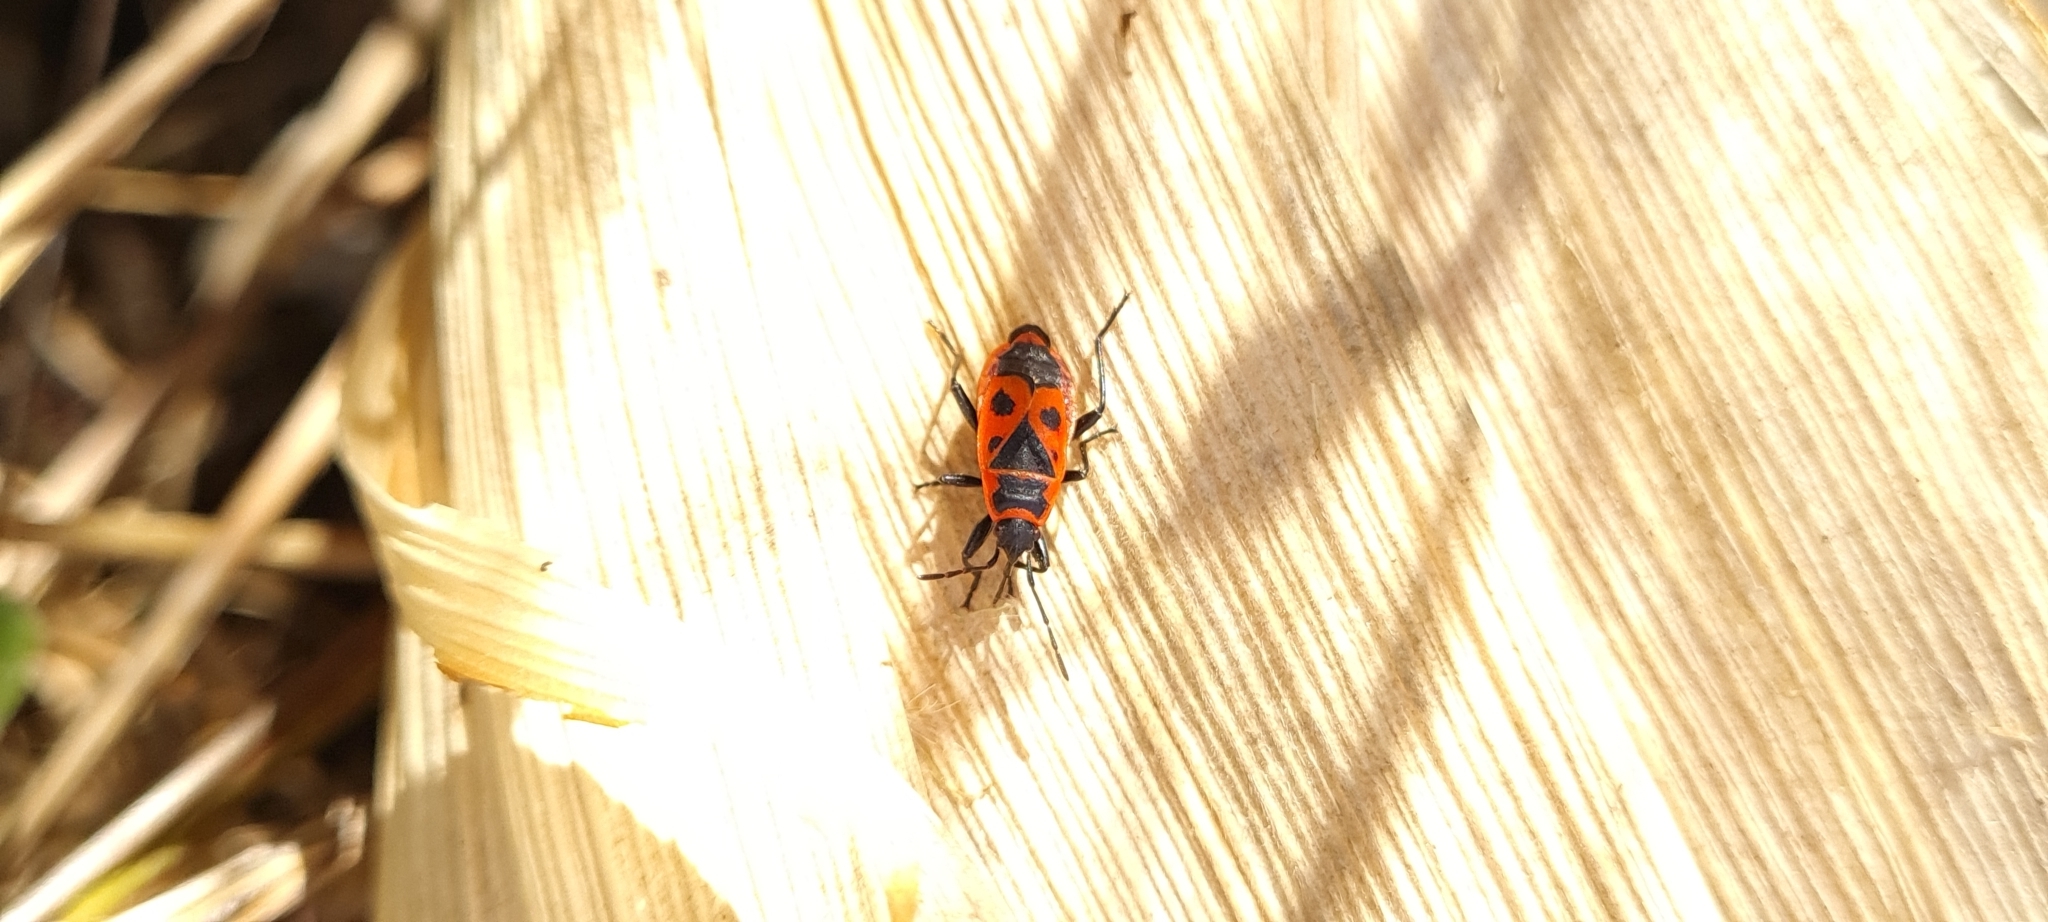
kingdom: Animalia
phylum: Arthropoda
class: Insecta
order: Hemiptera
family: Pyrrhocoridae
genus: Pyrrhocoris
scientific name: Pyrrhocoris apterus
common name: Firebug
